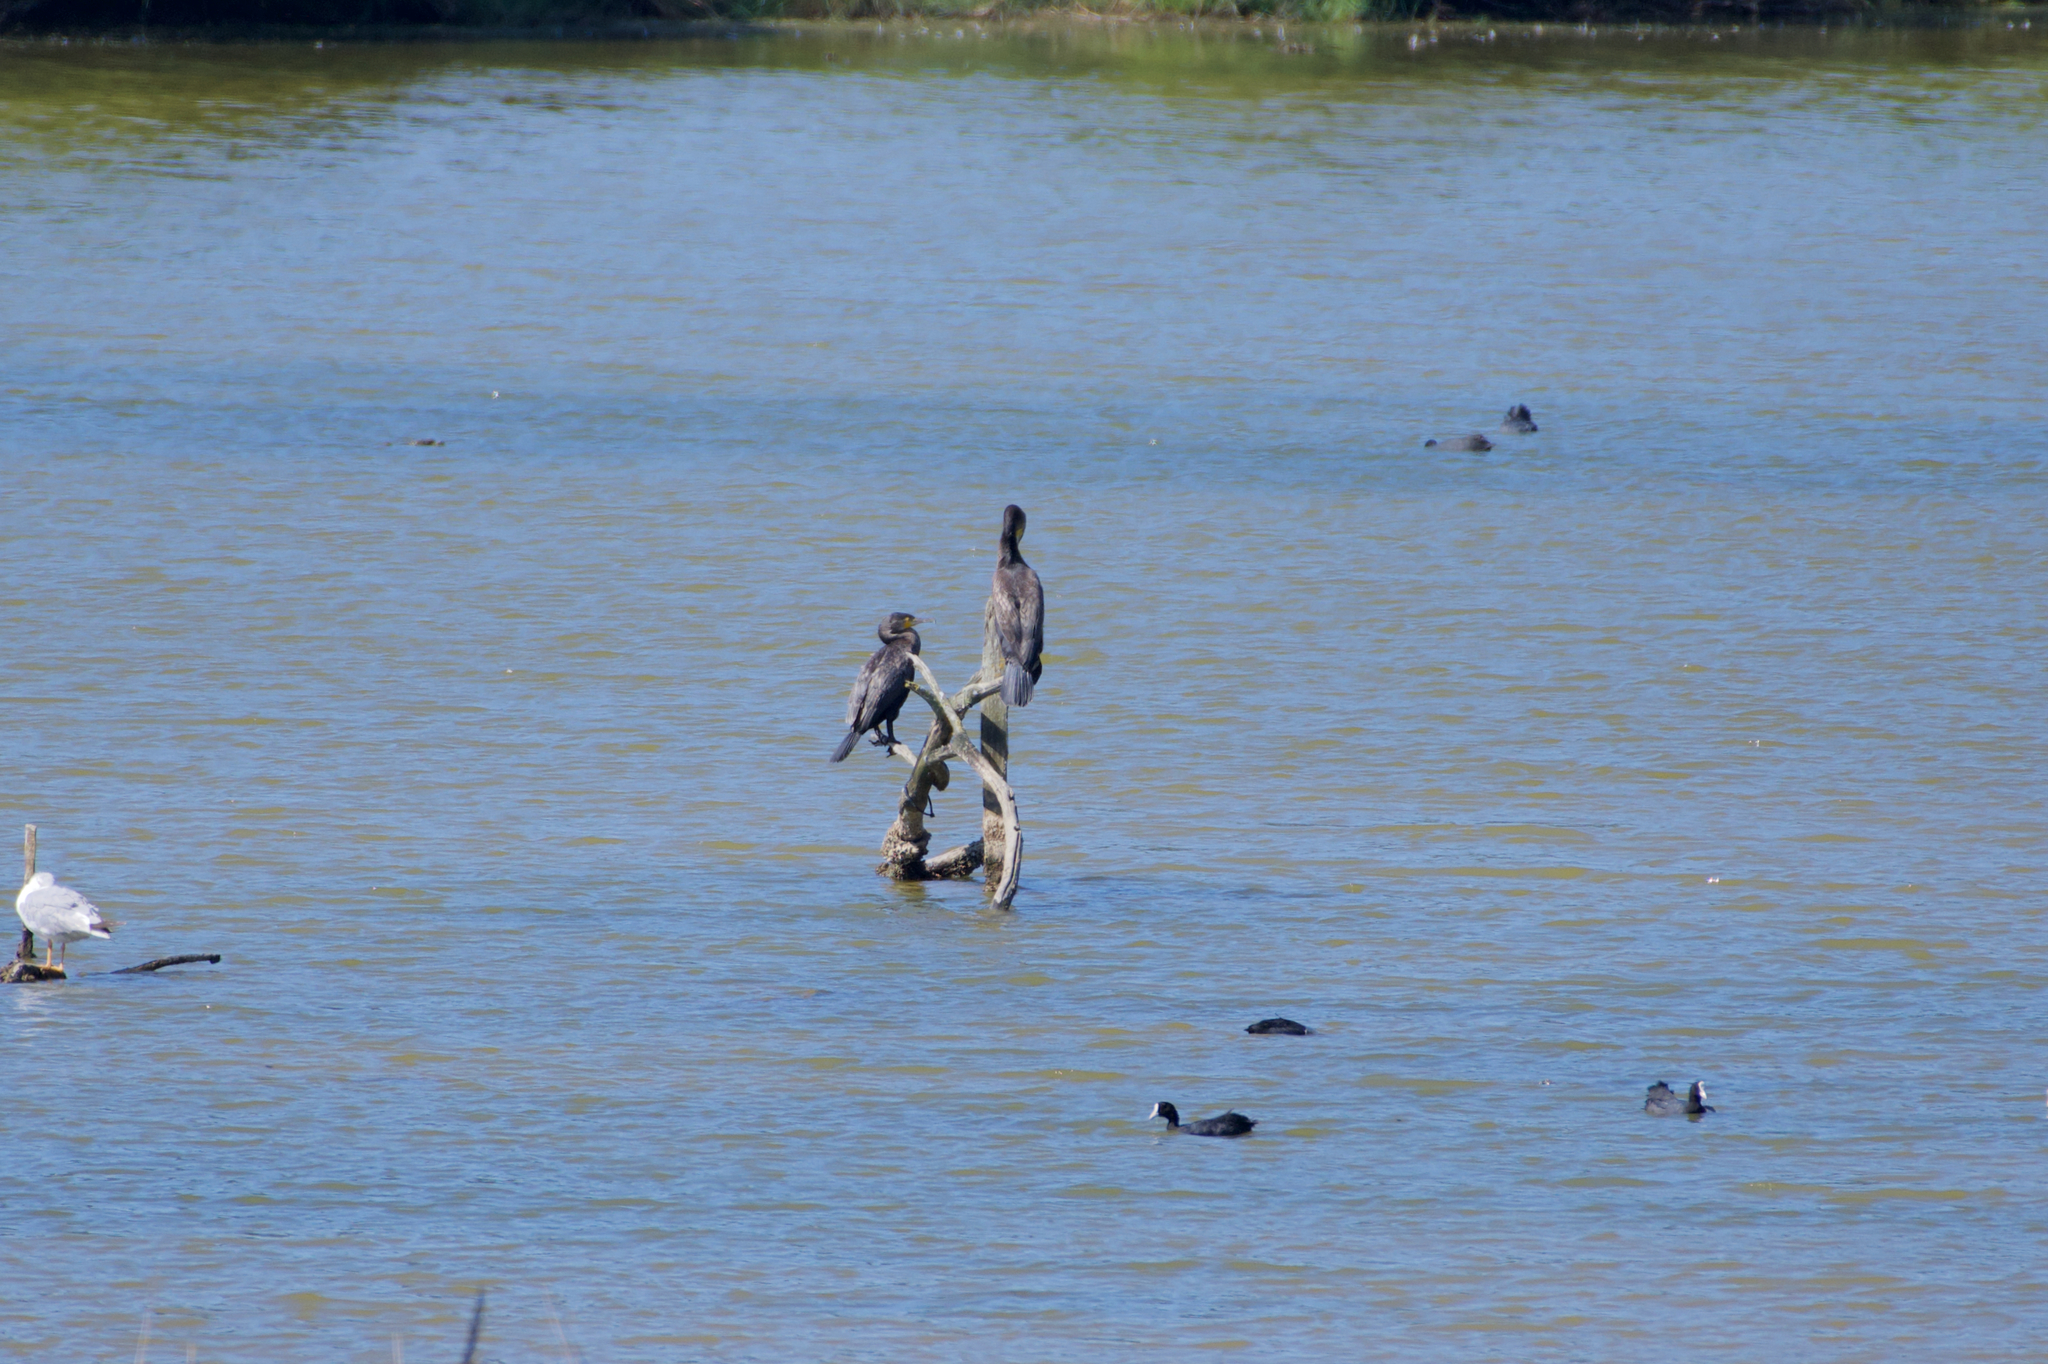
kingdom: Animalia
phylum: Chordata
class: Aves
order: Suliformes
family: Phalacrocoracidae
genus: Phalacrocorax
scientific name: Phalacrocorax carbo
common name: Great cormorant
